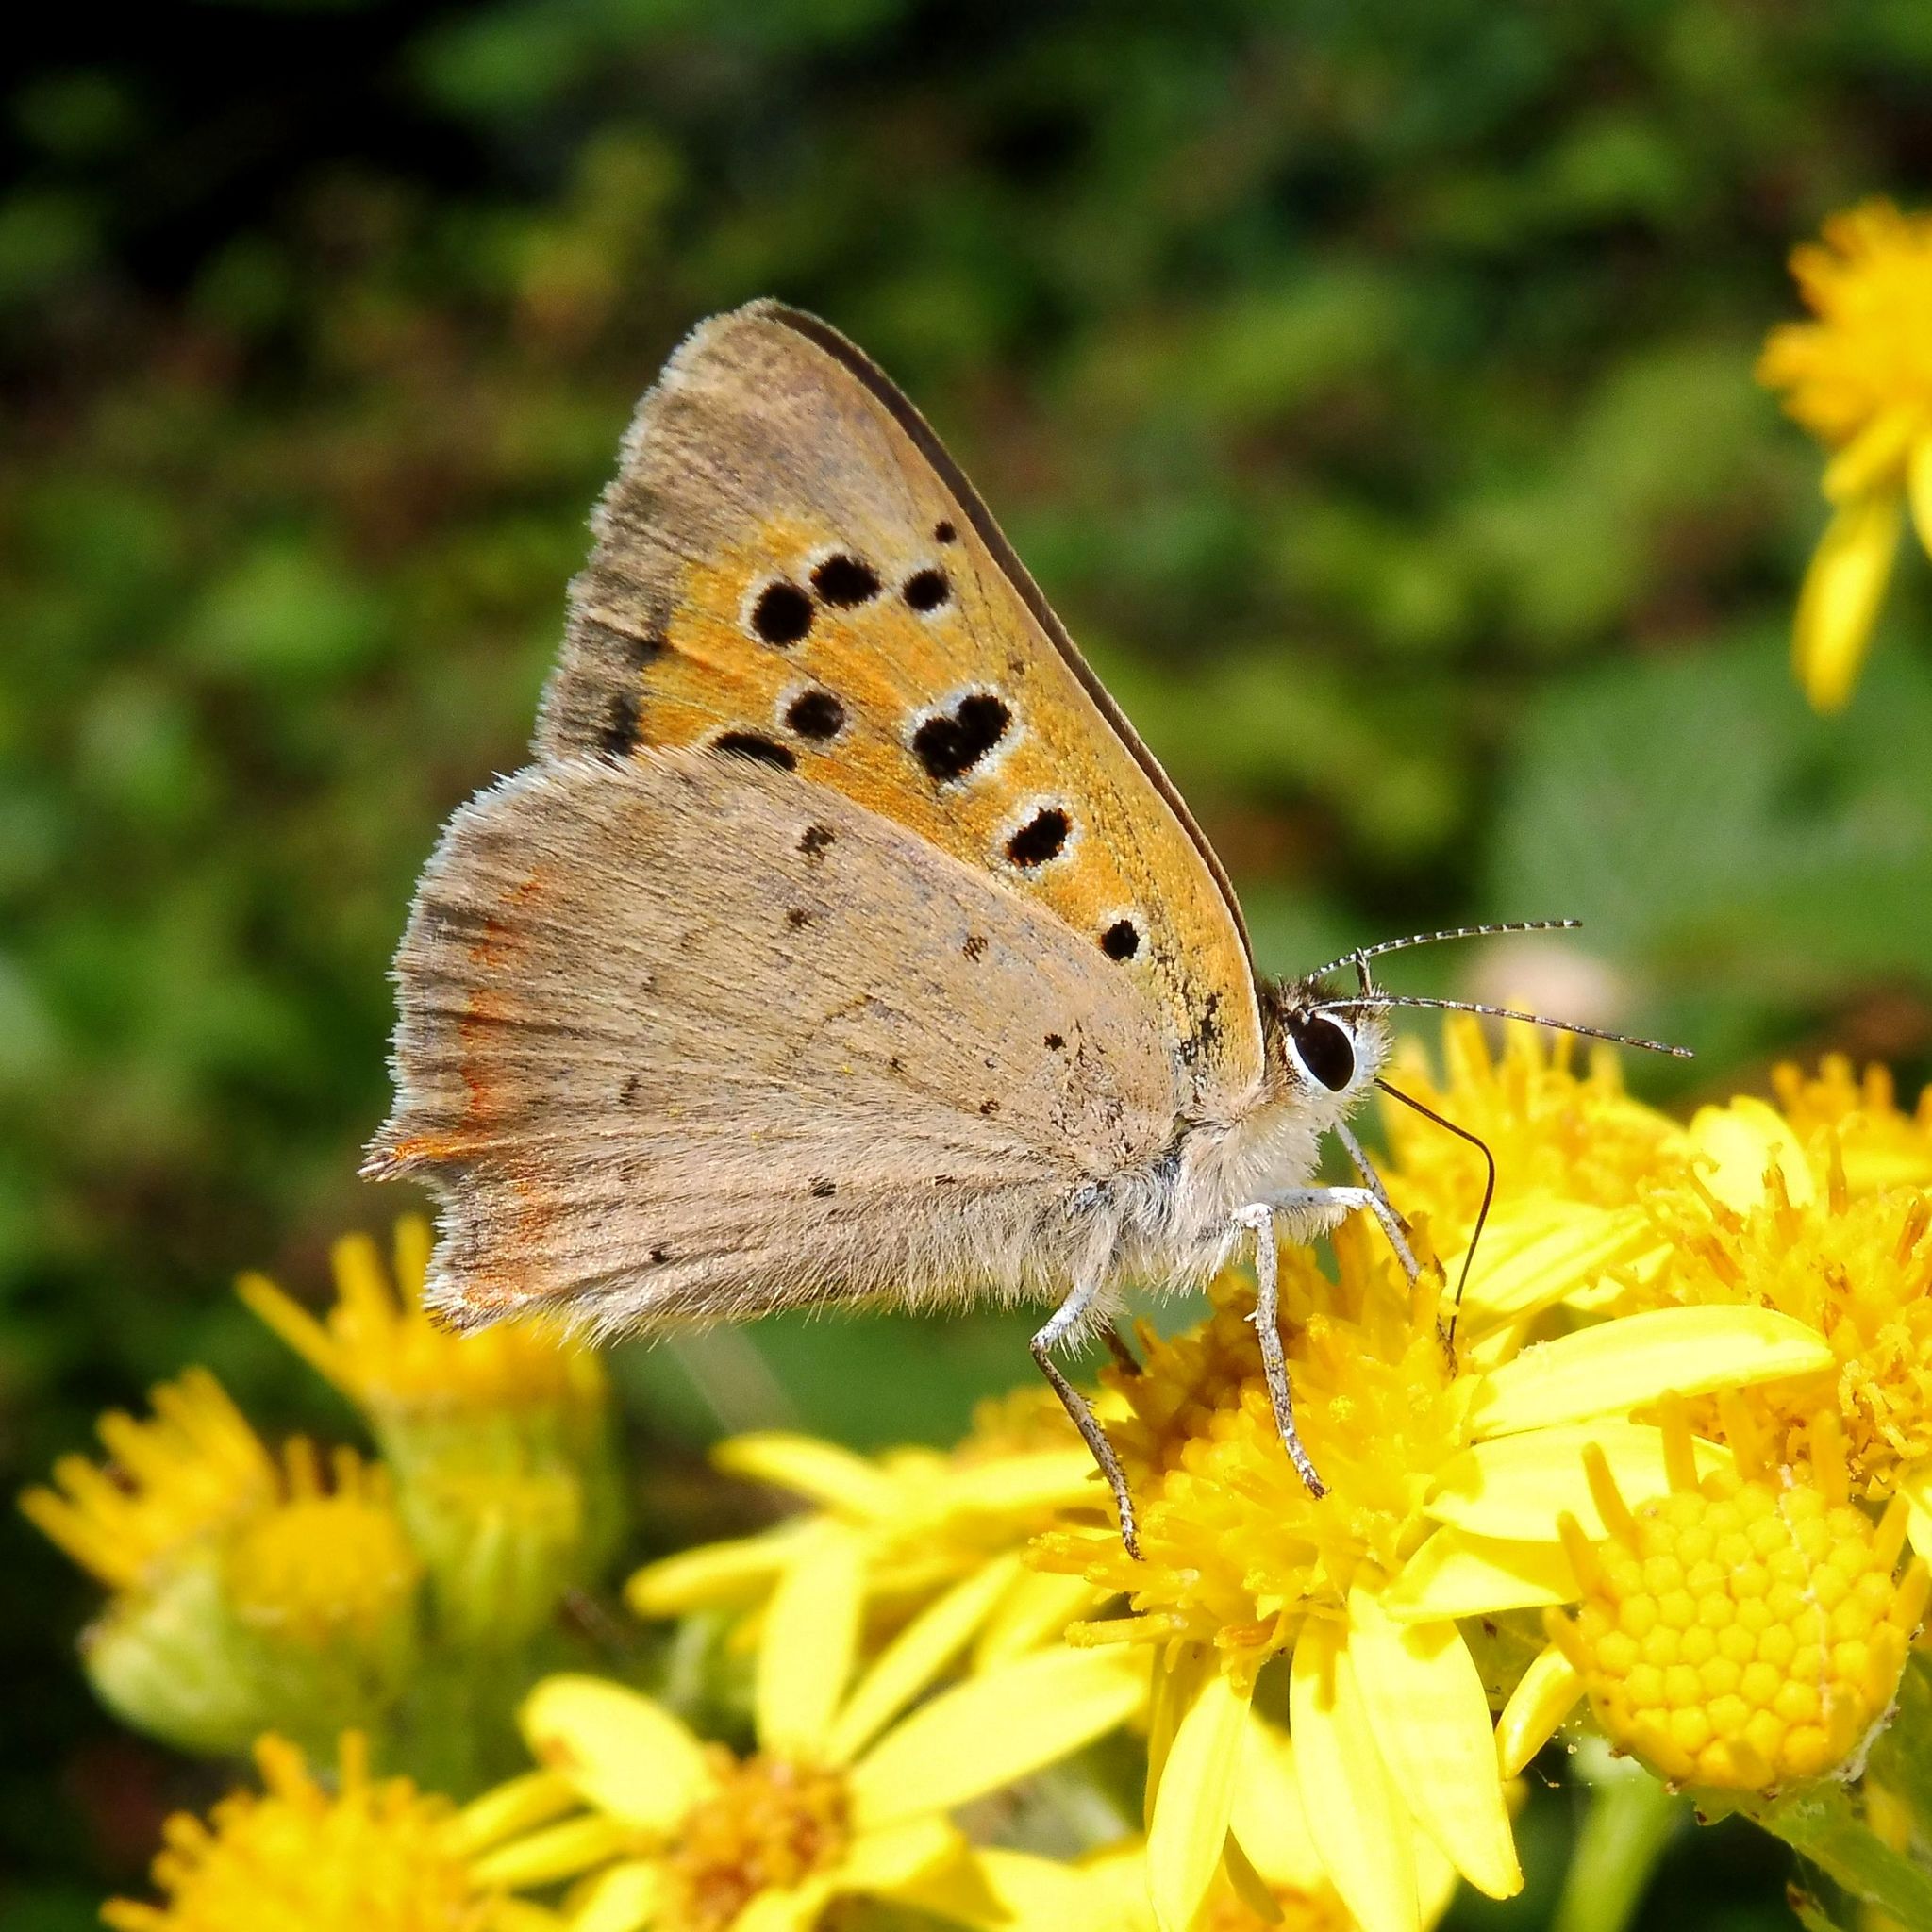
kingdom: Animalia
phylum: Arthropoda
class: Insecta
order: Lepidoptera
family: Lycaenidae
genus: Lycaena
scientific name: Lycaena phlaeas
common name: Small copper
